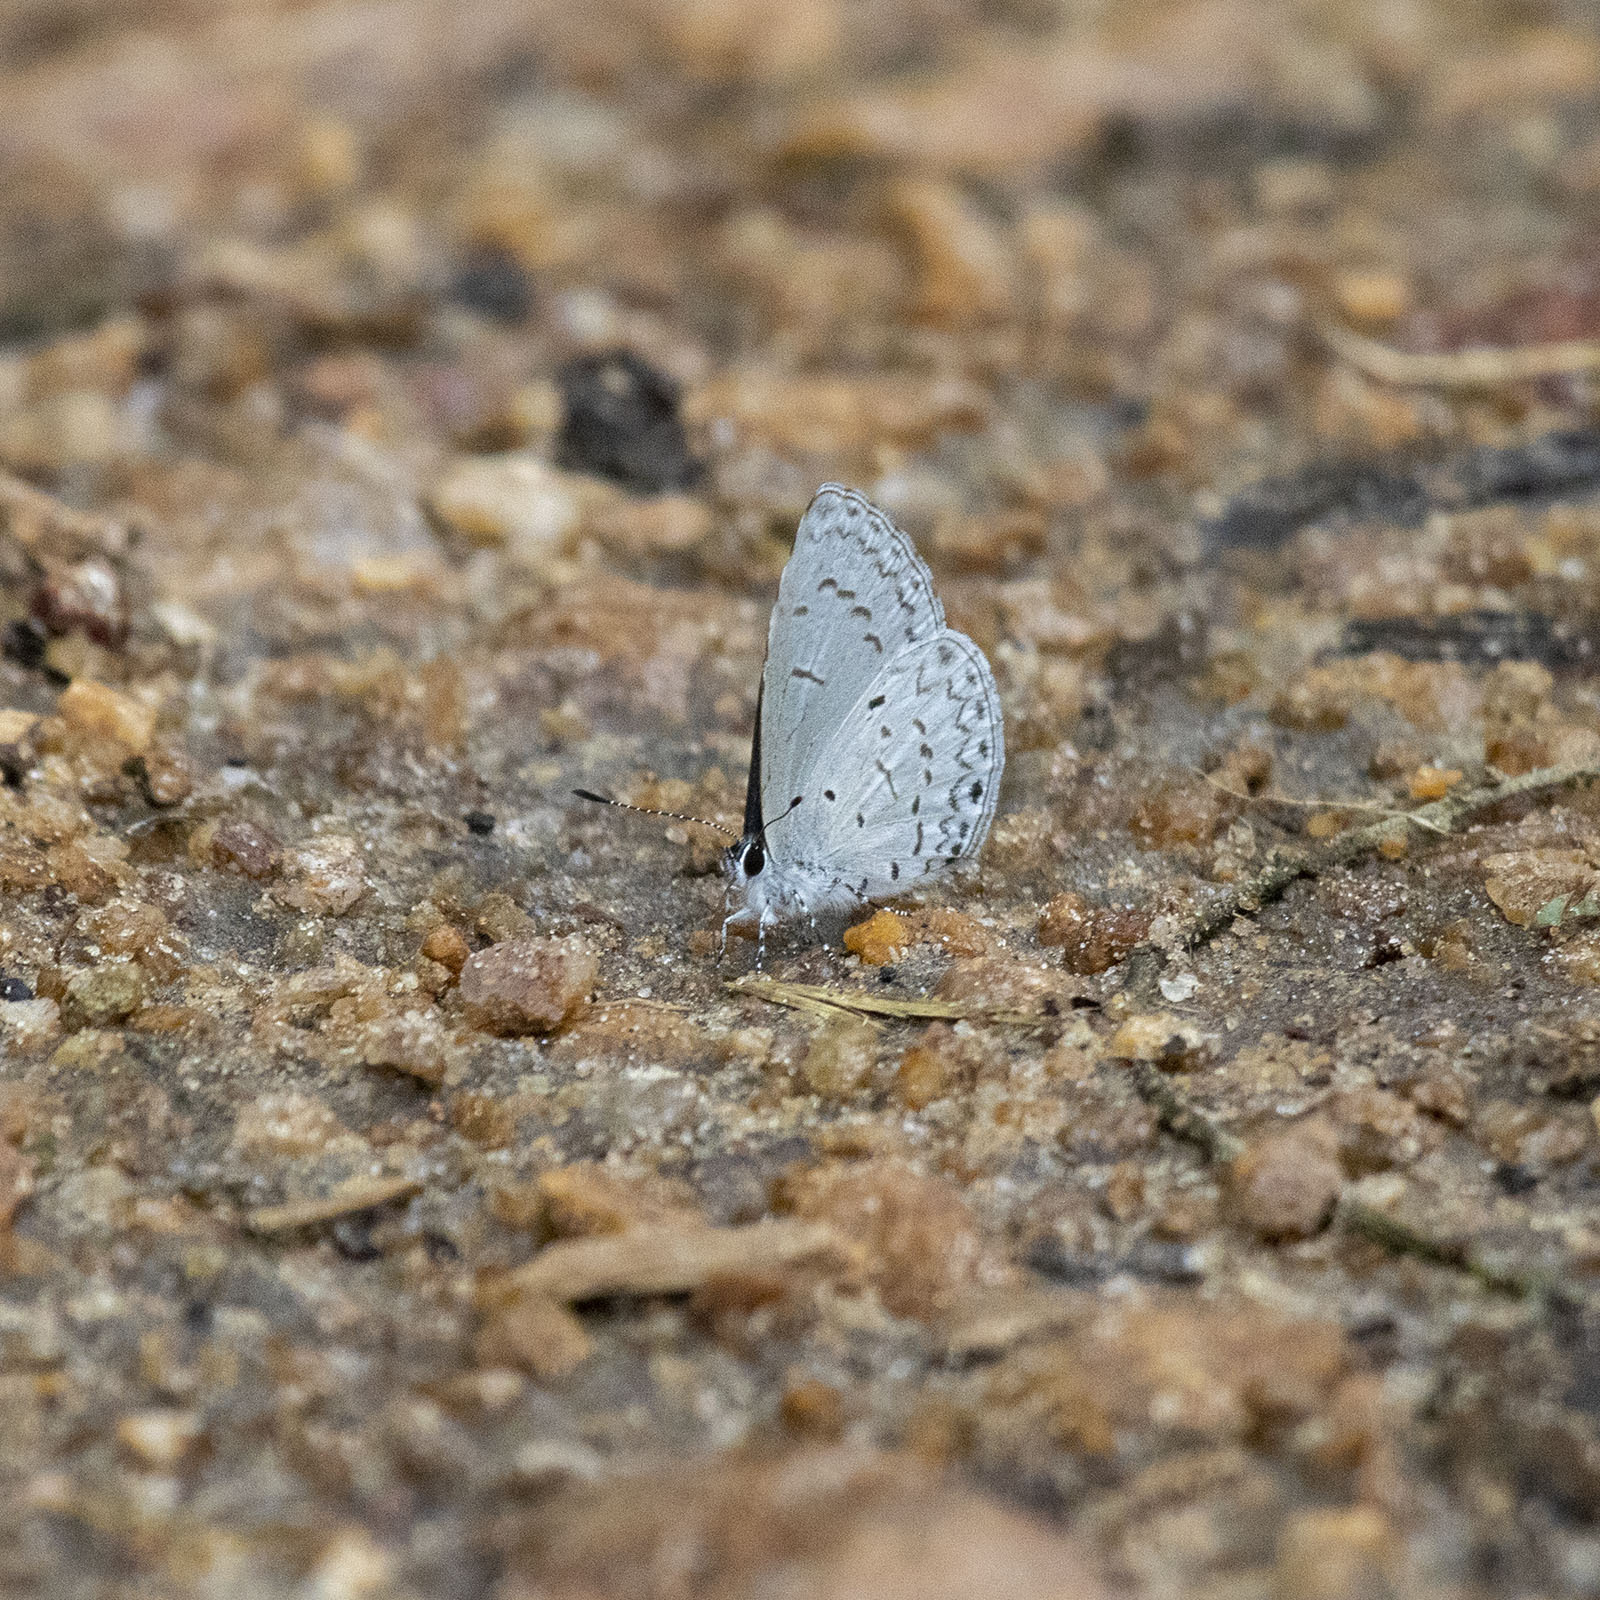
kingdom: Animalia
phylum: Arthropoda
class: Insecta
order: Lepidoptera
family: Lycaenidae
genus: Celastrina
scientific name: Celastrina lavendularis
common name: Plain hedge blue
